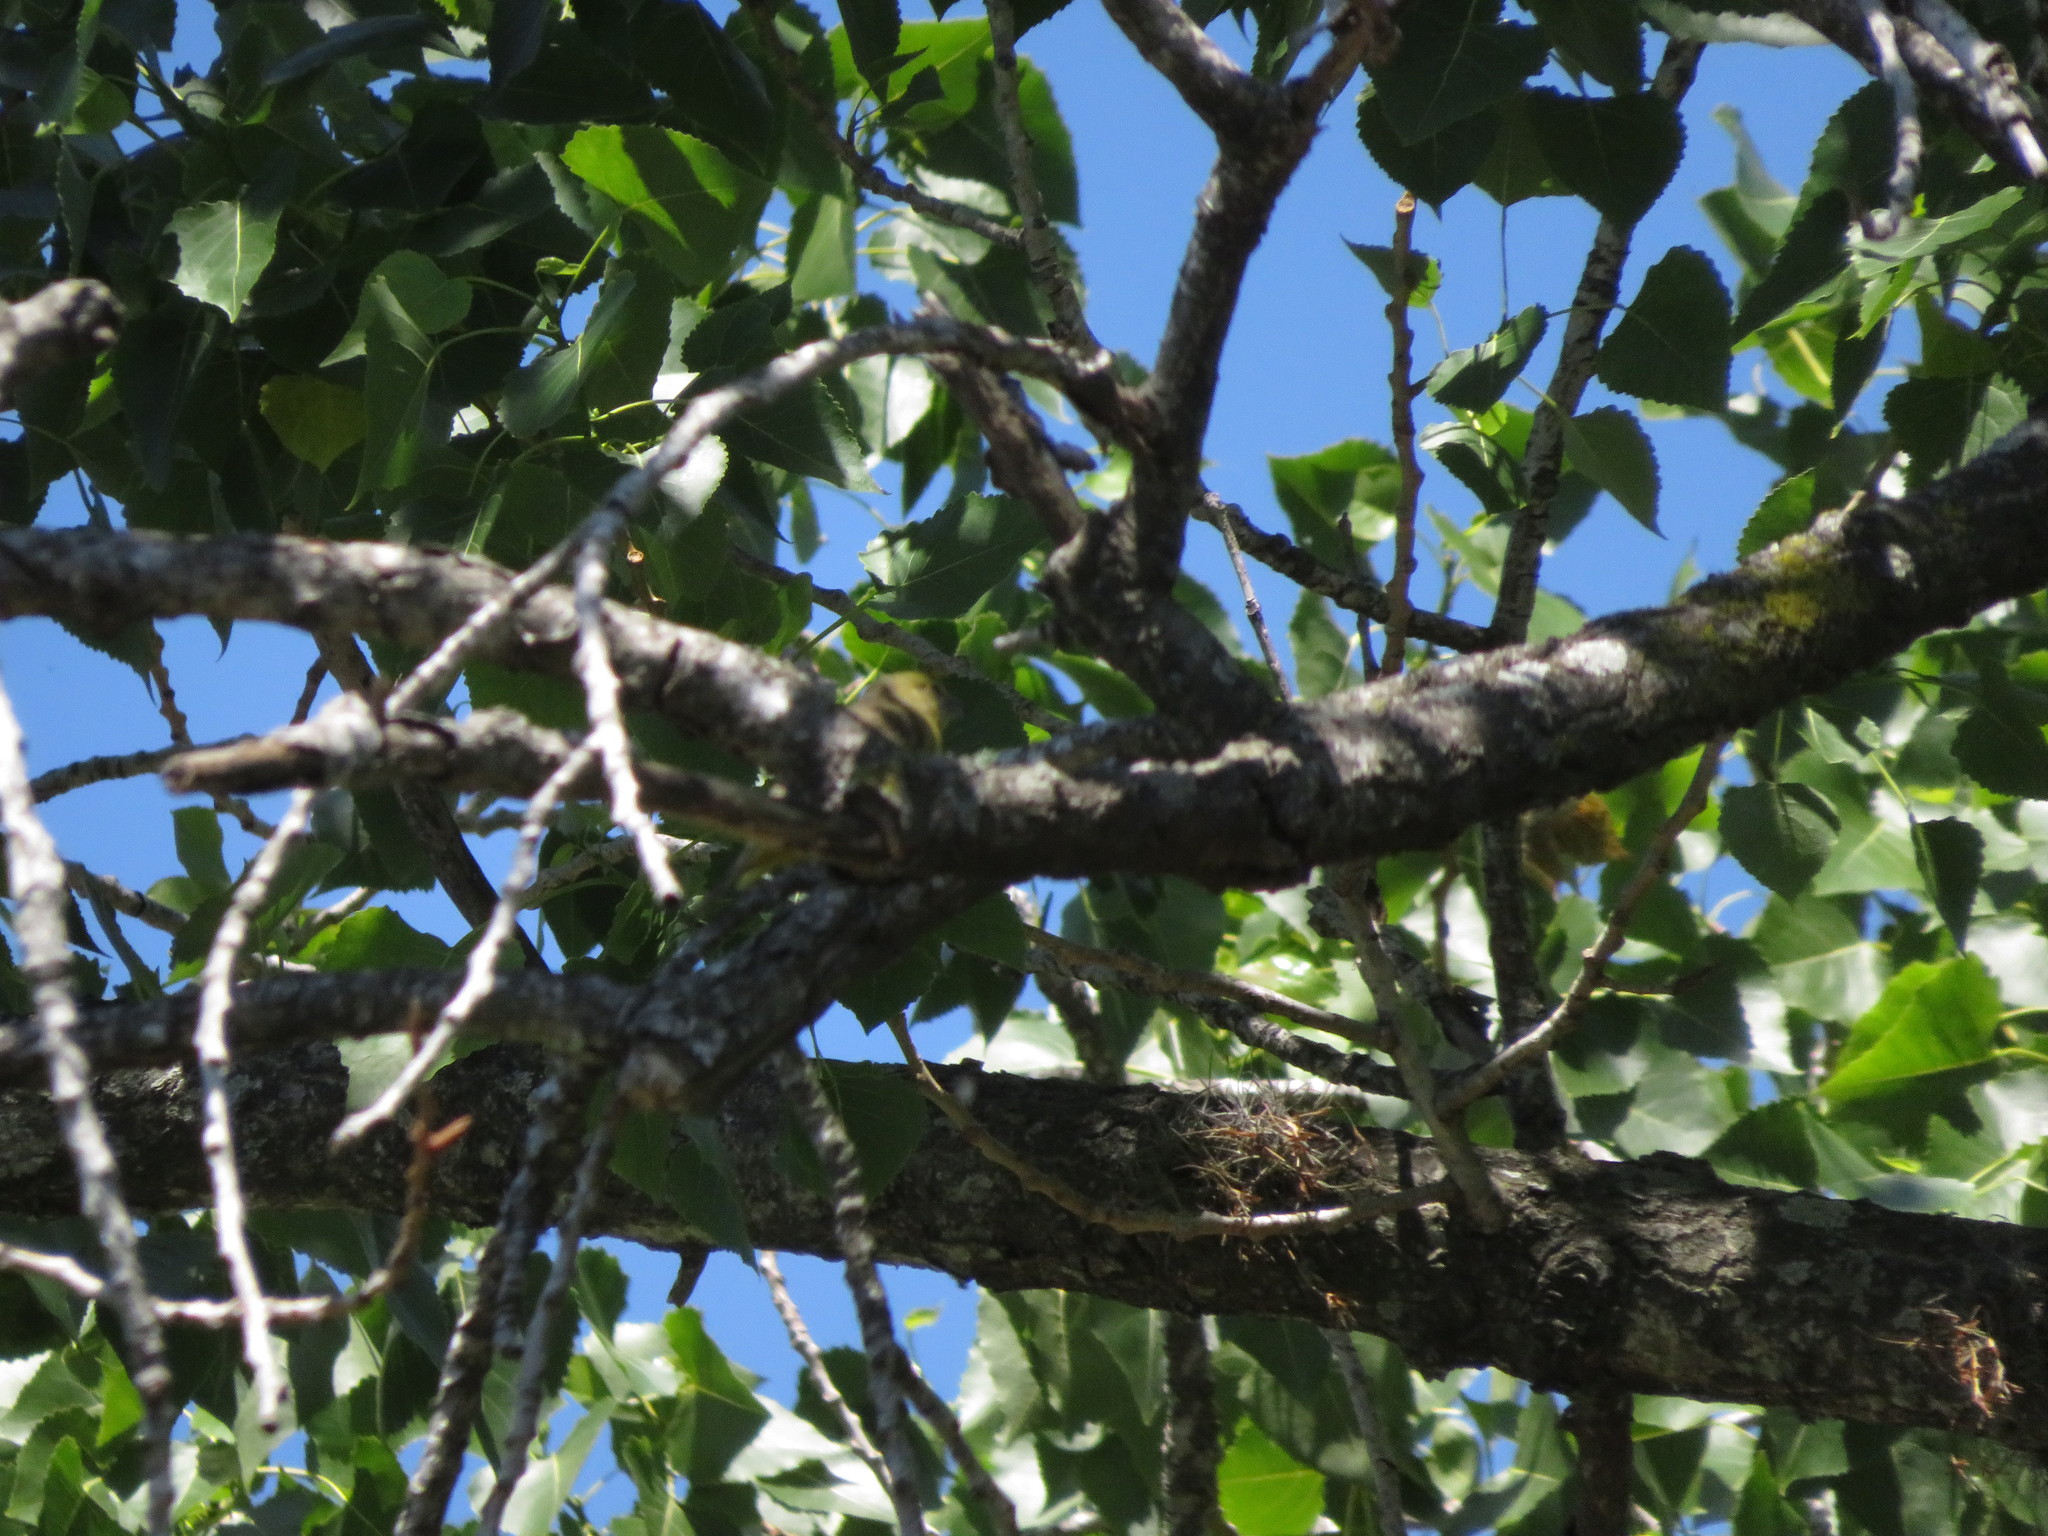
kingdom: Animalia
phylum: Chordata
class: Aves
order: Passeriformes
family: Cardinalidae
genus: Piranga
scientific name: Piranga flava
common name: Red tanager
